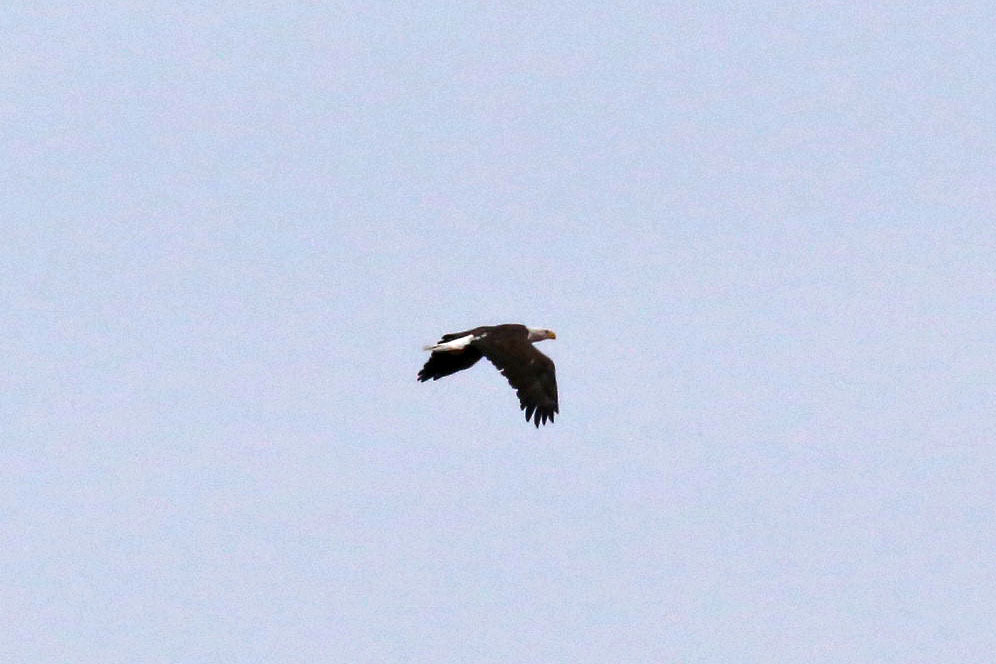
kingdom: Animalia
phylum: Chordata
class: Aves
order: Accipitriformes
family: Accipitridae
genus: Haliaeetus
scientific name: Haliaeetus leucocephalus
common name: Bald eagle
